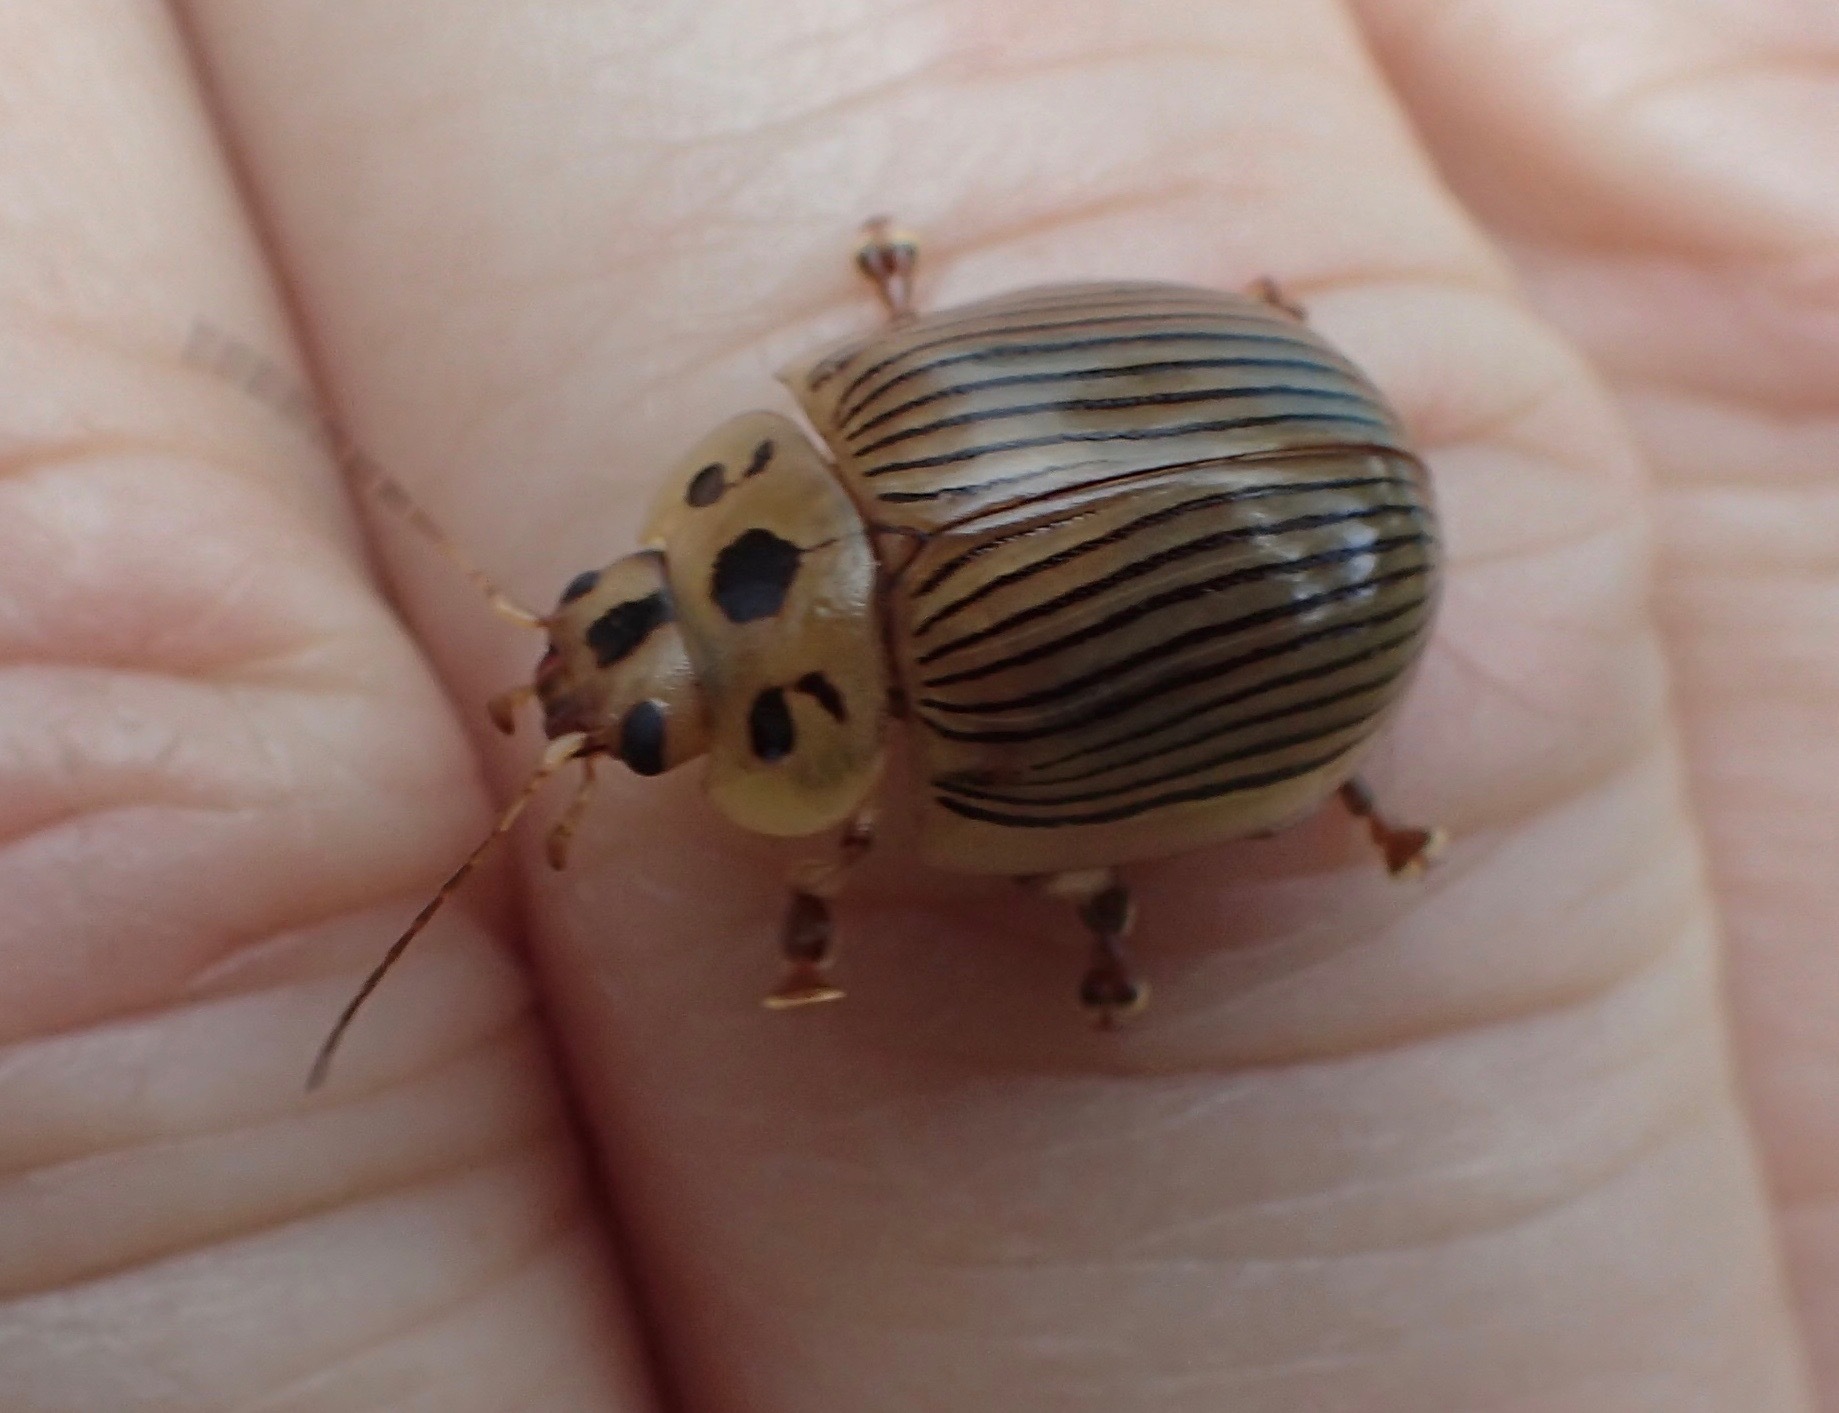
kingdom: Animalia
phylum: Arthropoda
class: Insecta
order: Coleoptera
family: Chrysomelidae
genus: Paropsisterna
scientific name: Paropsisterna
